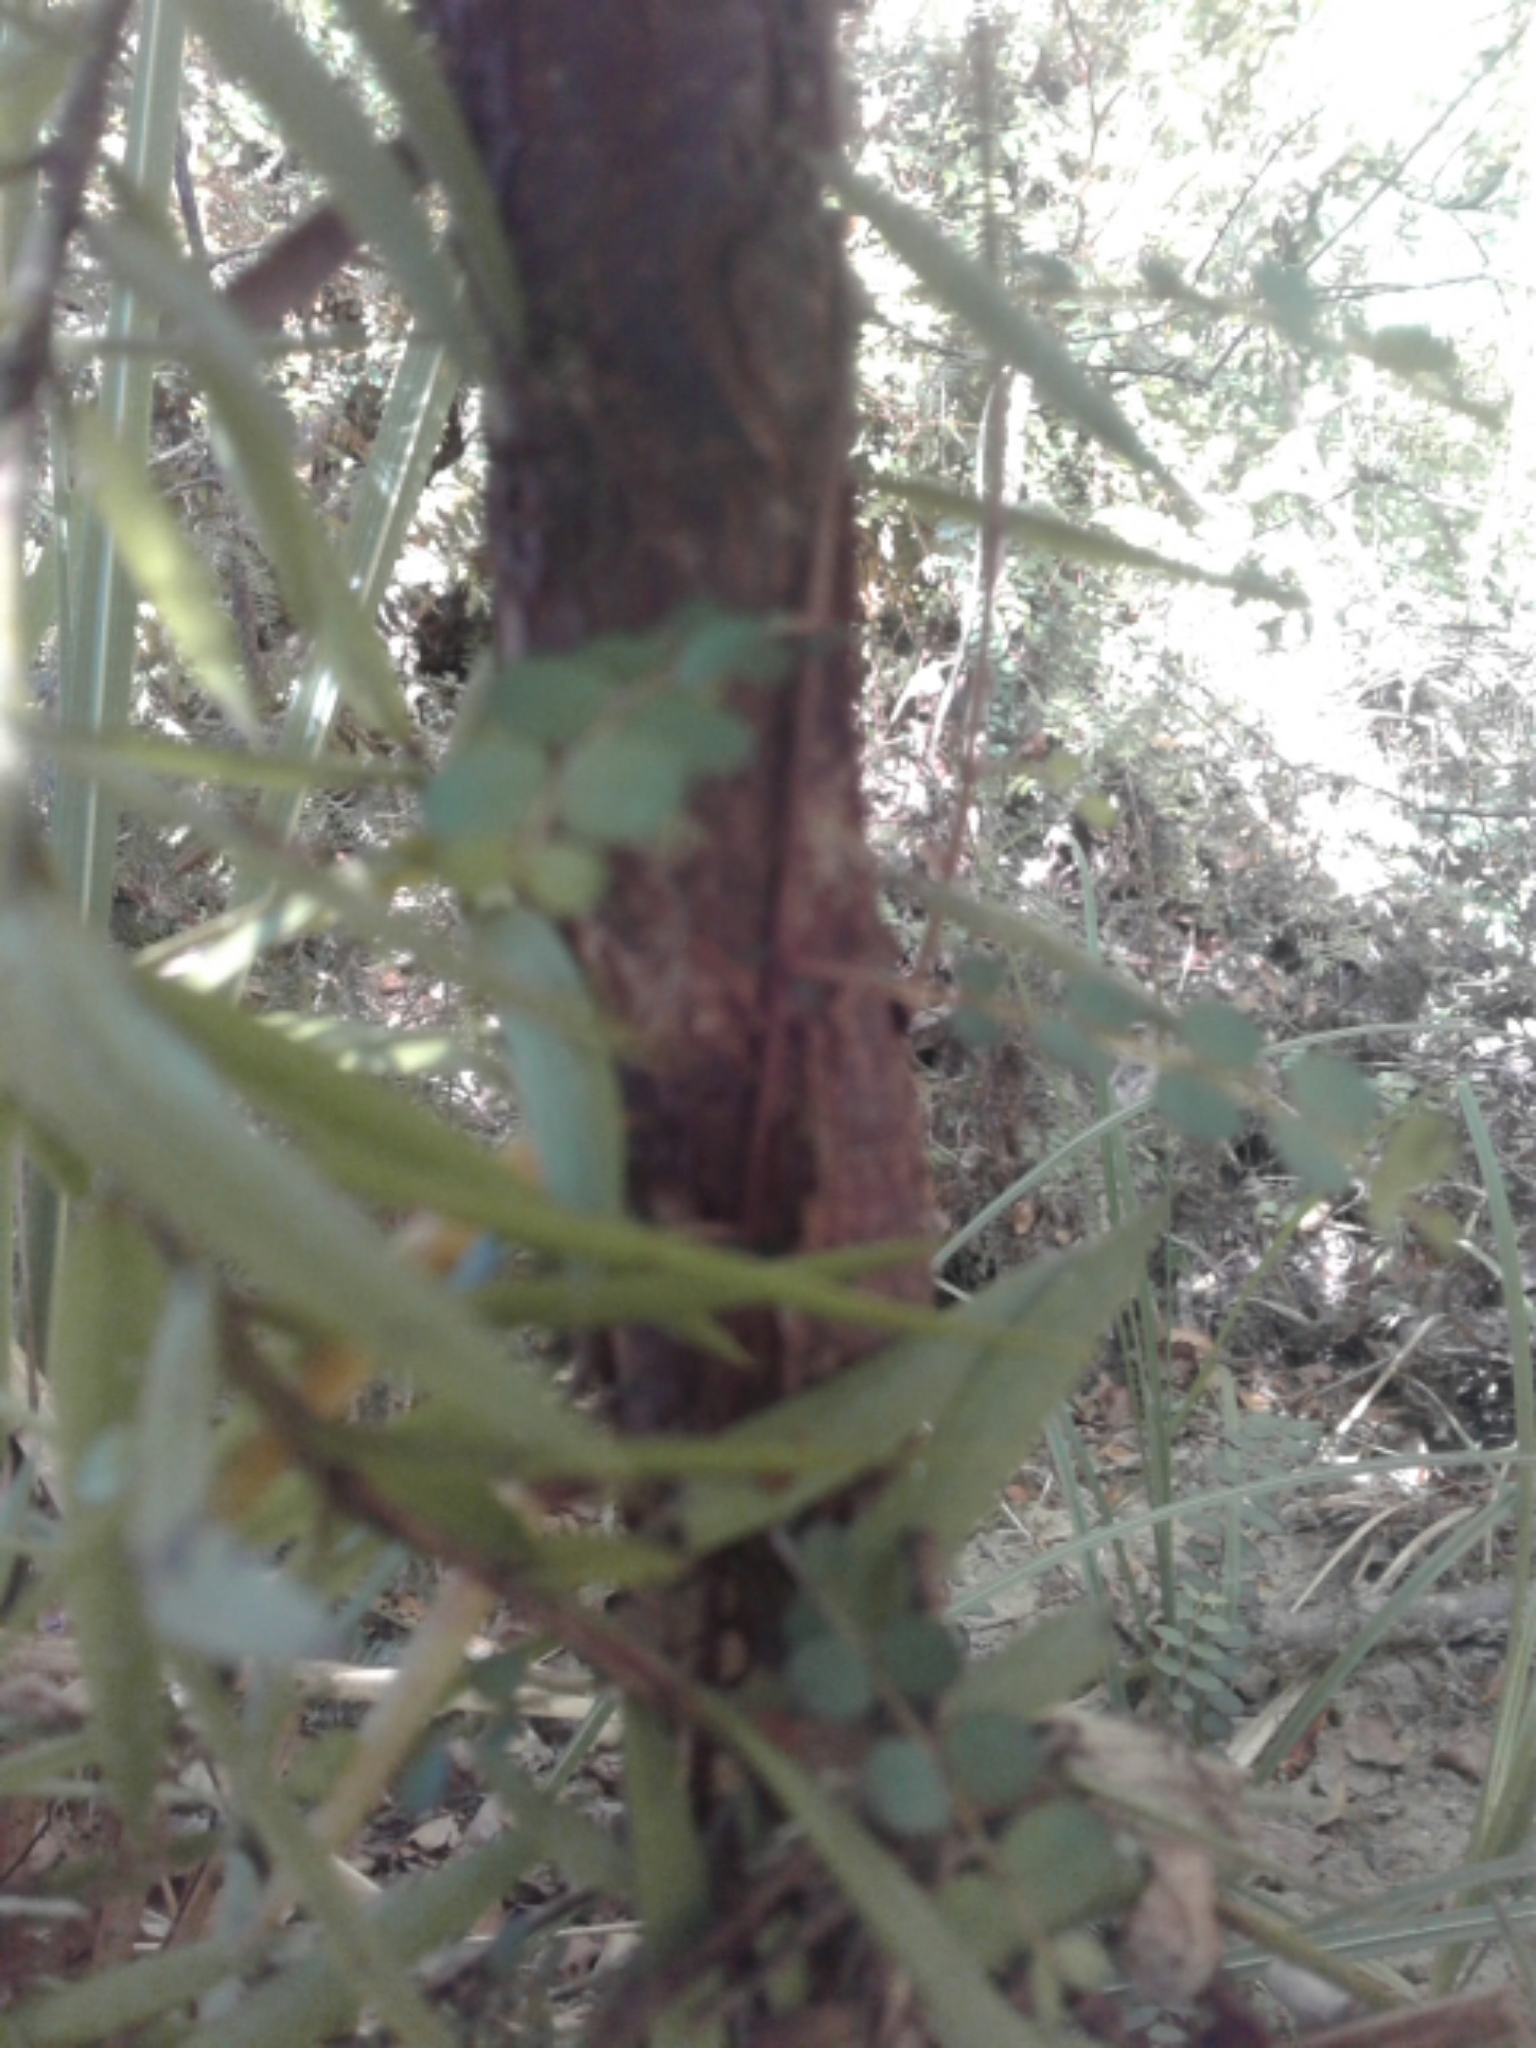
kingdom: Plantae
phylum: Tracheophyta
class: Pinopsida
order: Pinales
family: Podocarpaceae
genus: Podocarpus
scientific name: Podocarpus laetus
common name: Hall's totara
